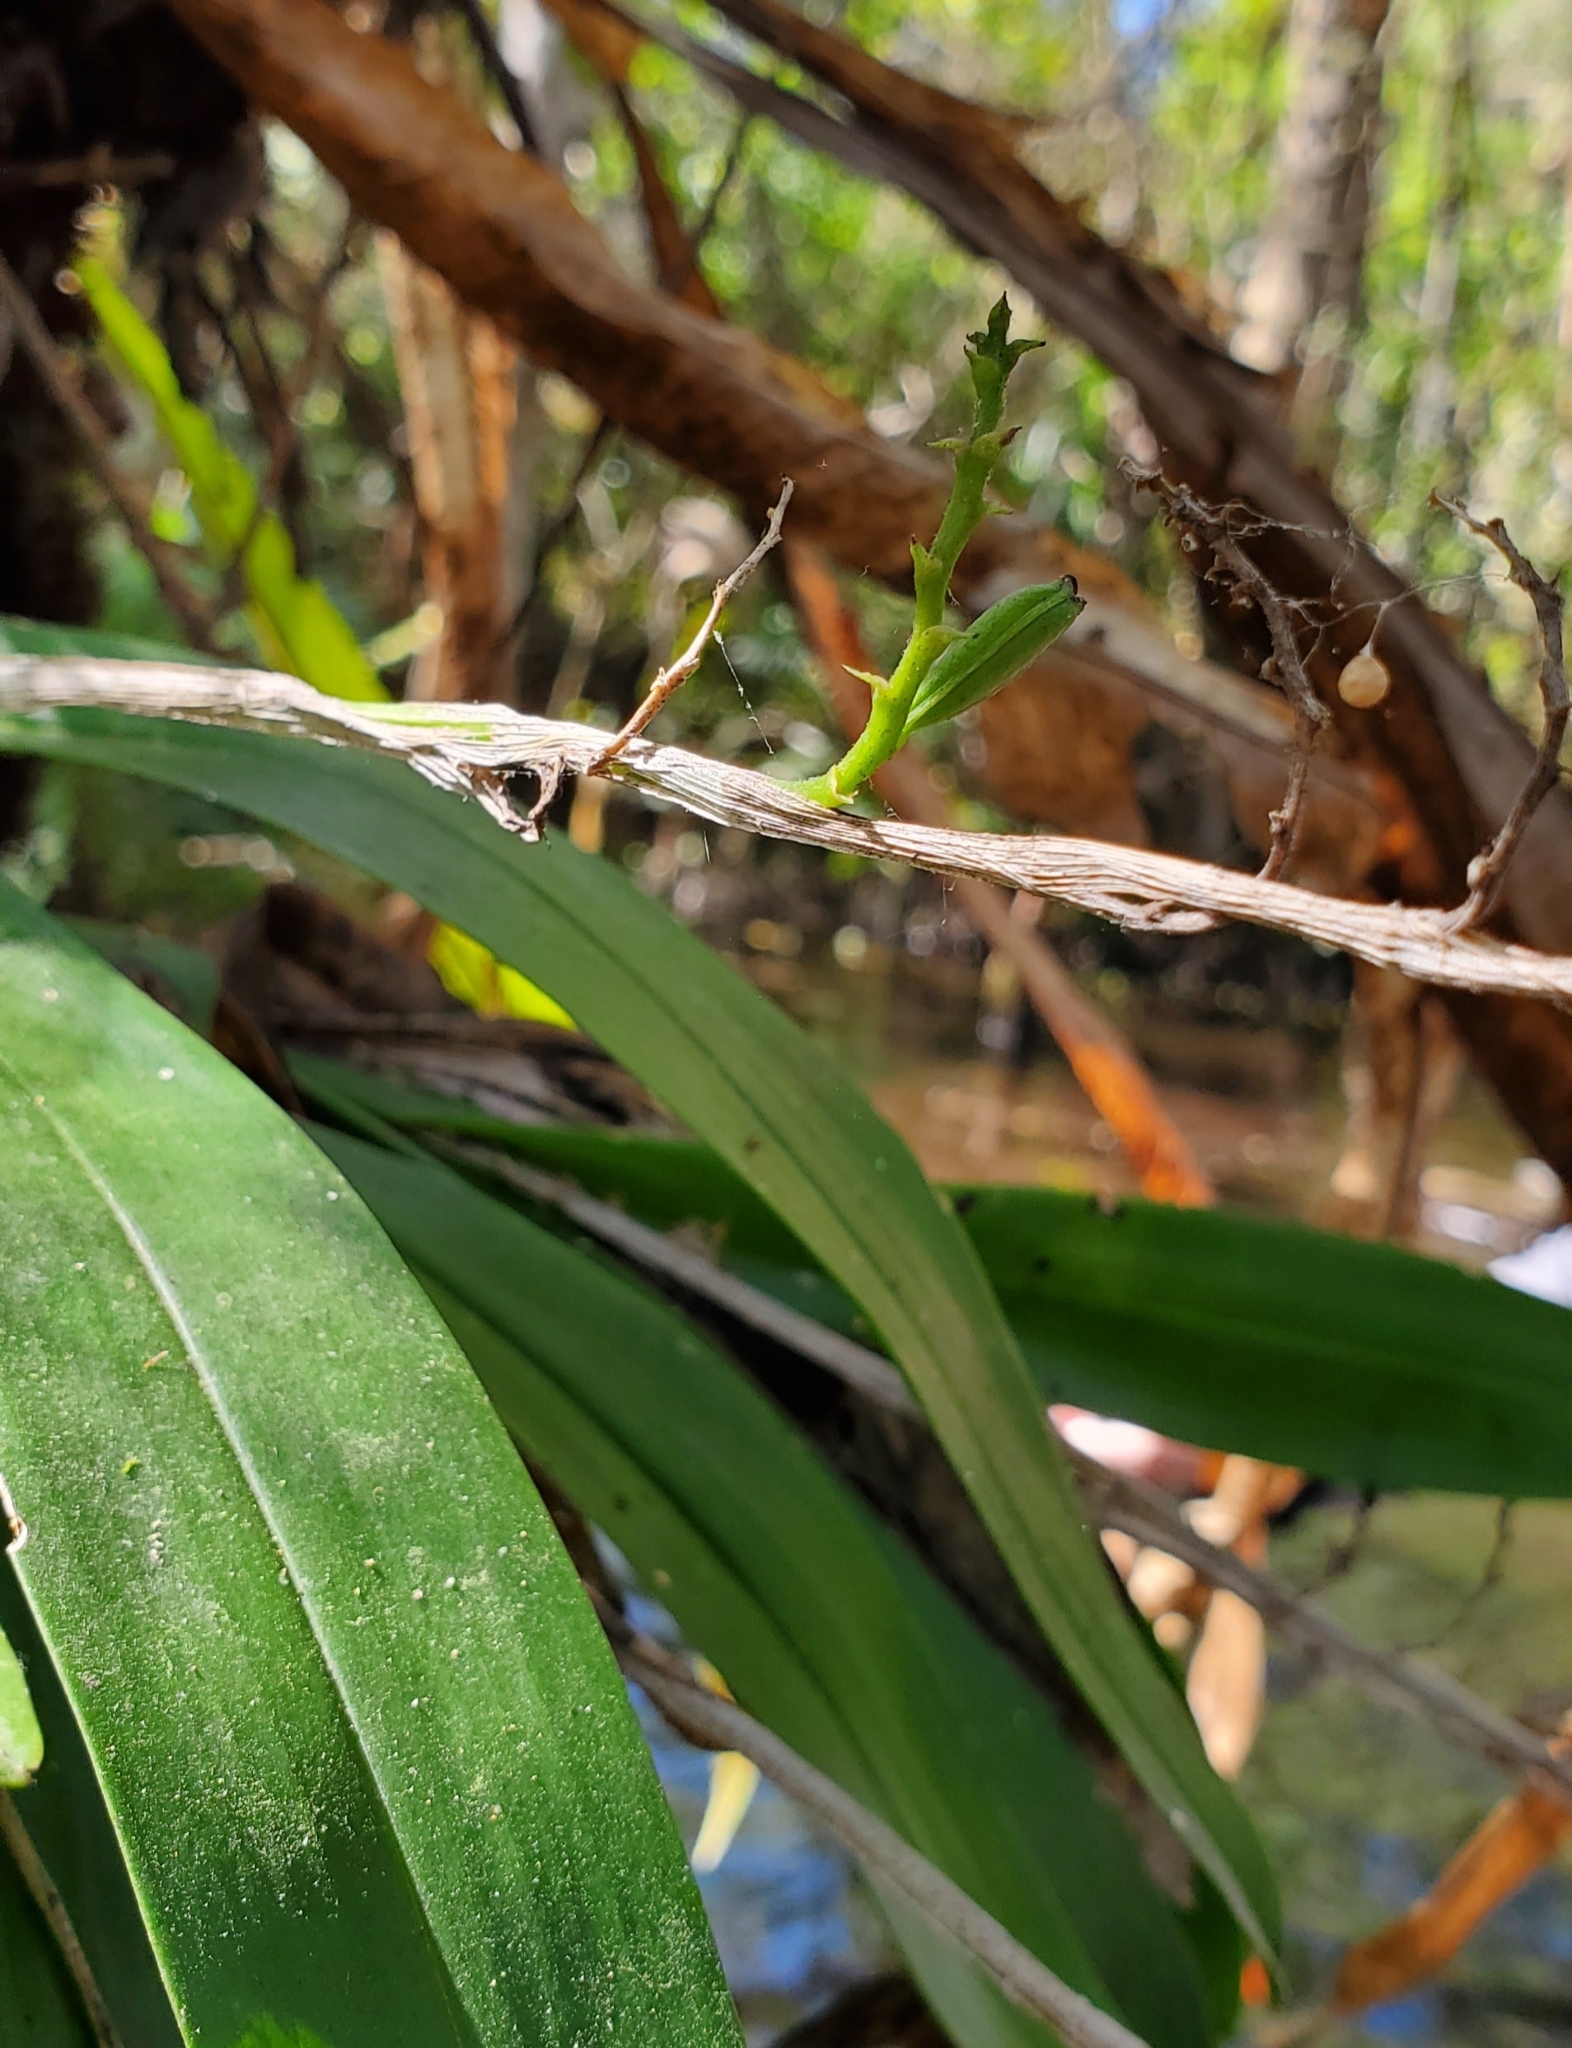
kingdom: Plantae
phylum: Tracheophyta
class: Liliopsida
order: Asparagales
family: Orchidaceae
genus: Polystachya
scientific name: Polystachya concreta
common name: Greater yellowspike orchid
